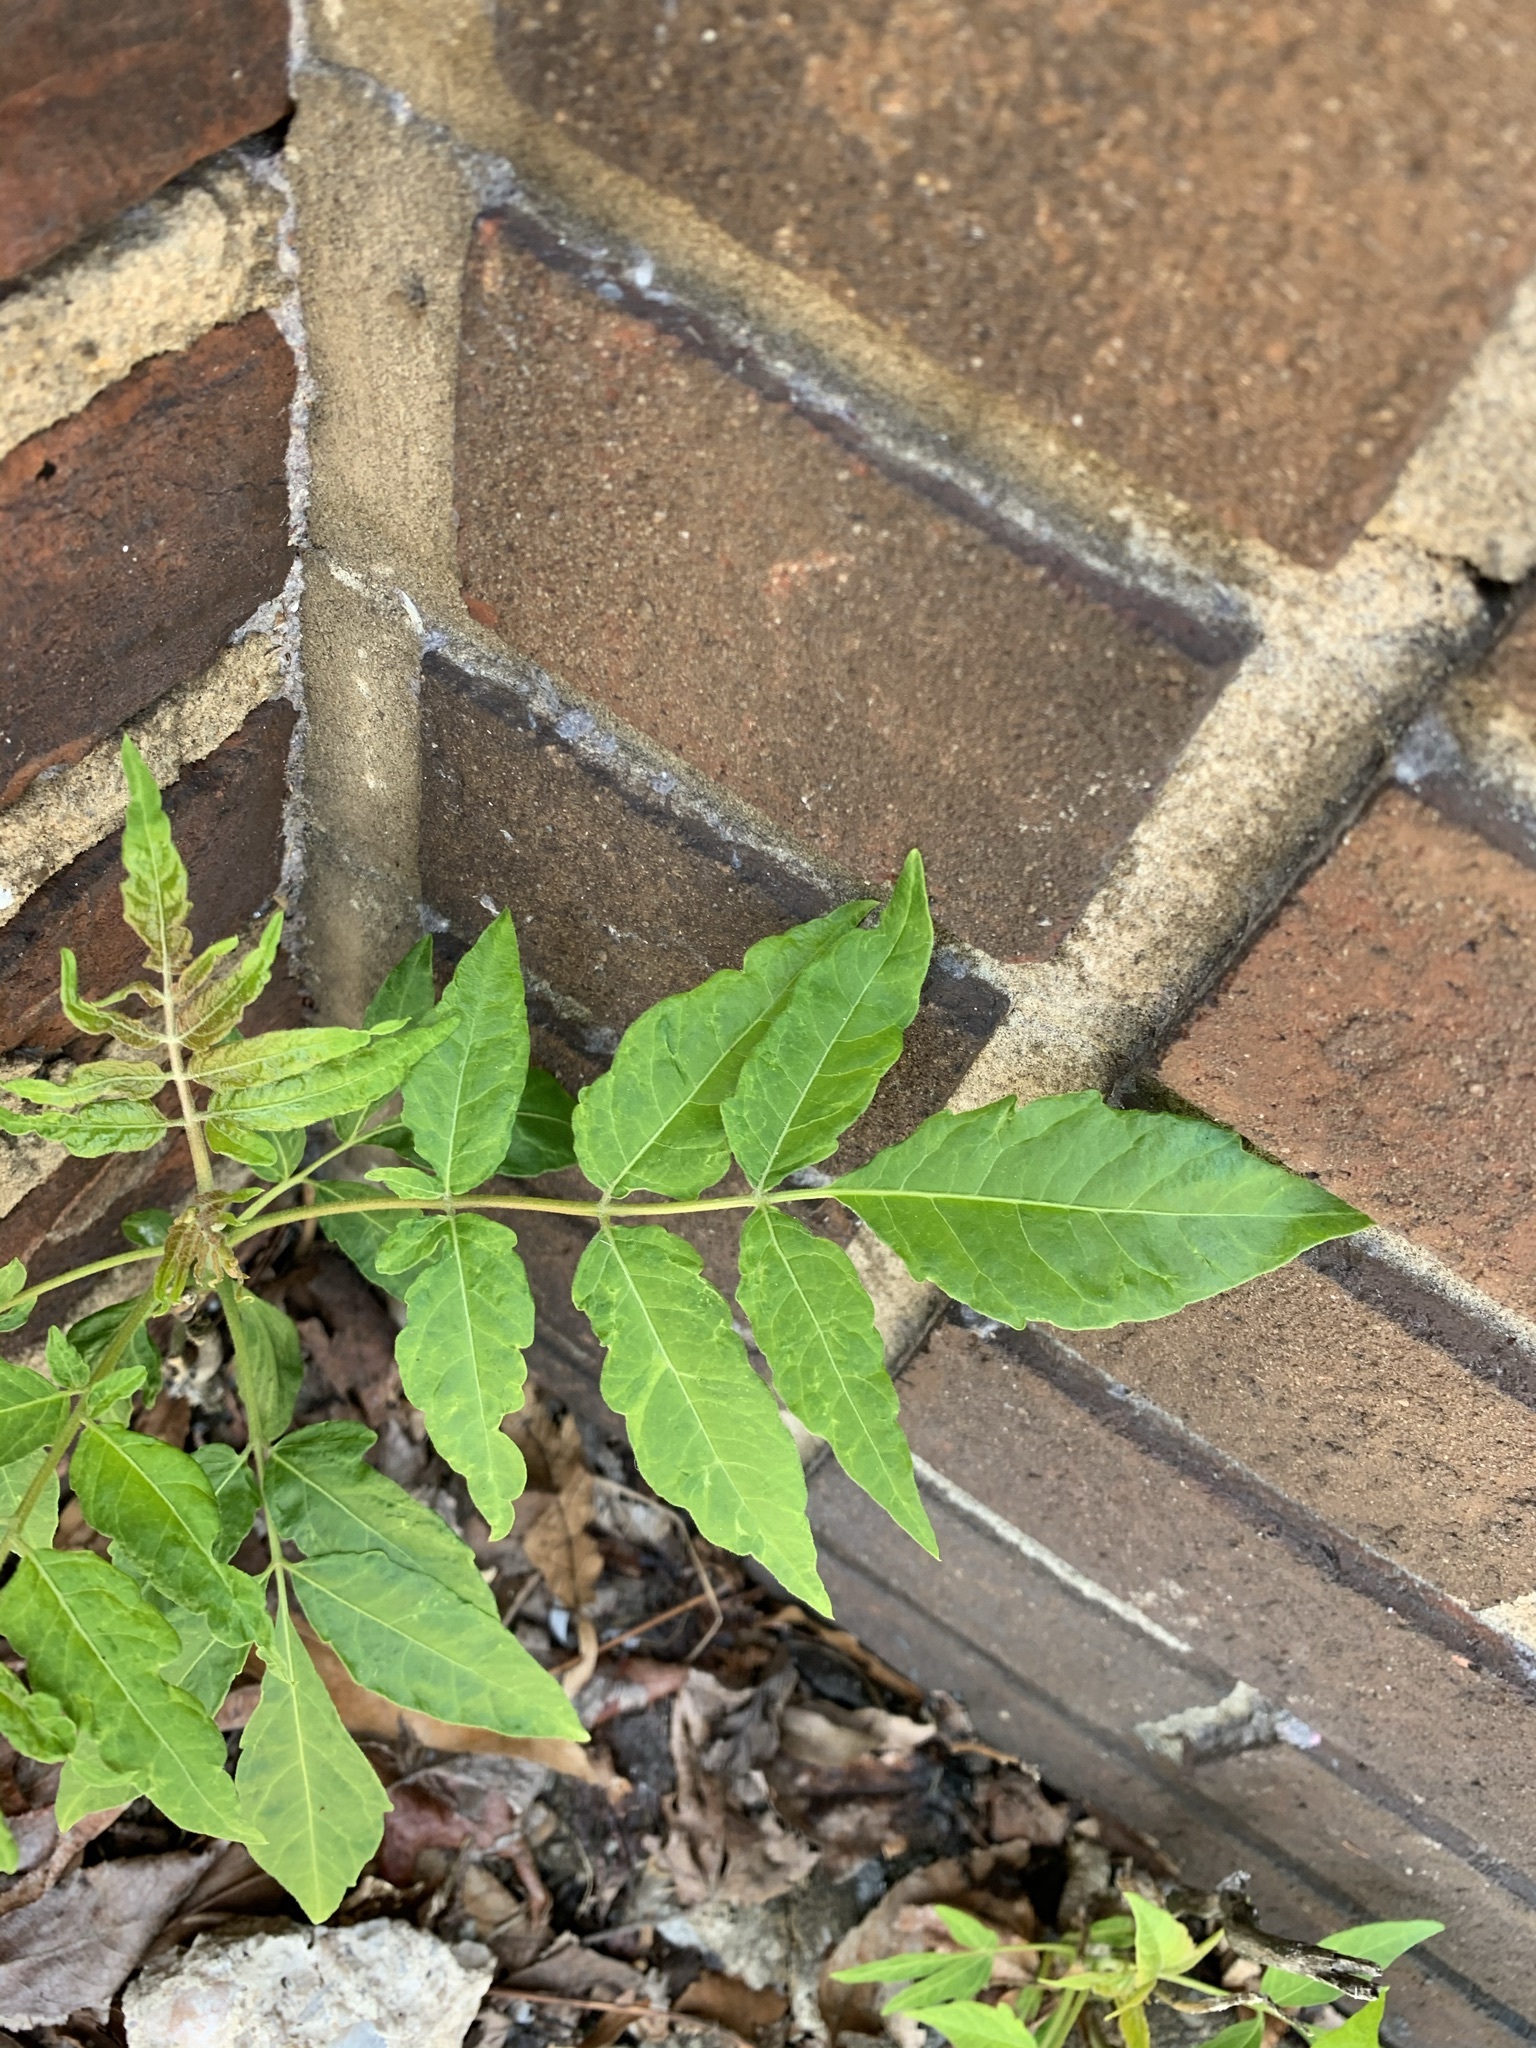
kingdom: Plantae
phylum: Tracheophyta
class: Magnoliopsida
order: Sapindales
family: Simaroubaceae
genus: Ailanthus
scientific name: Ailanthus altissima
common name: Tree-of-heaven
